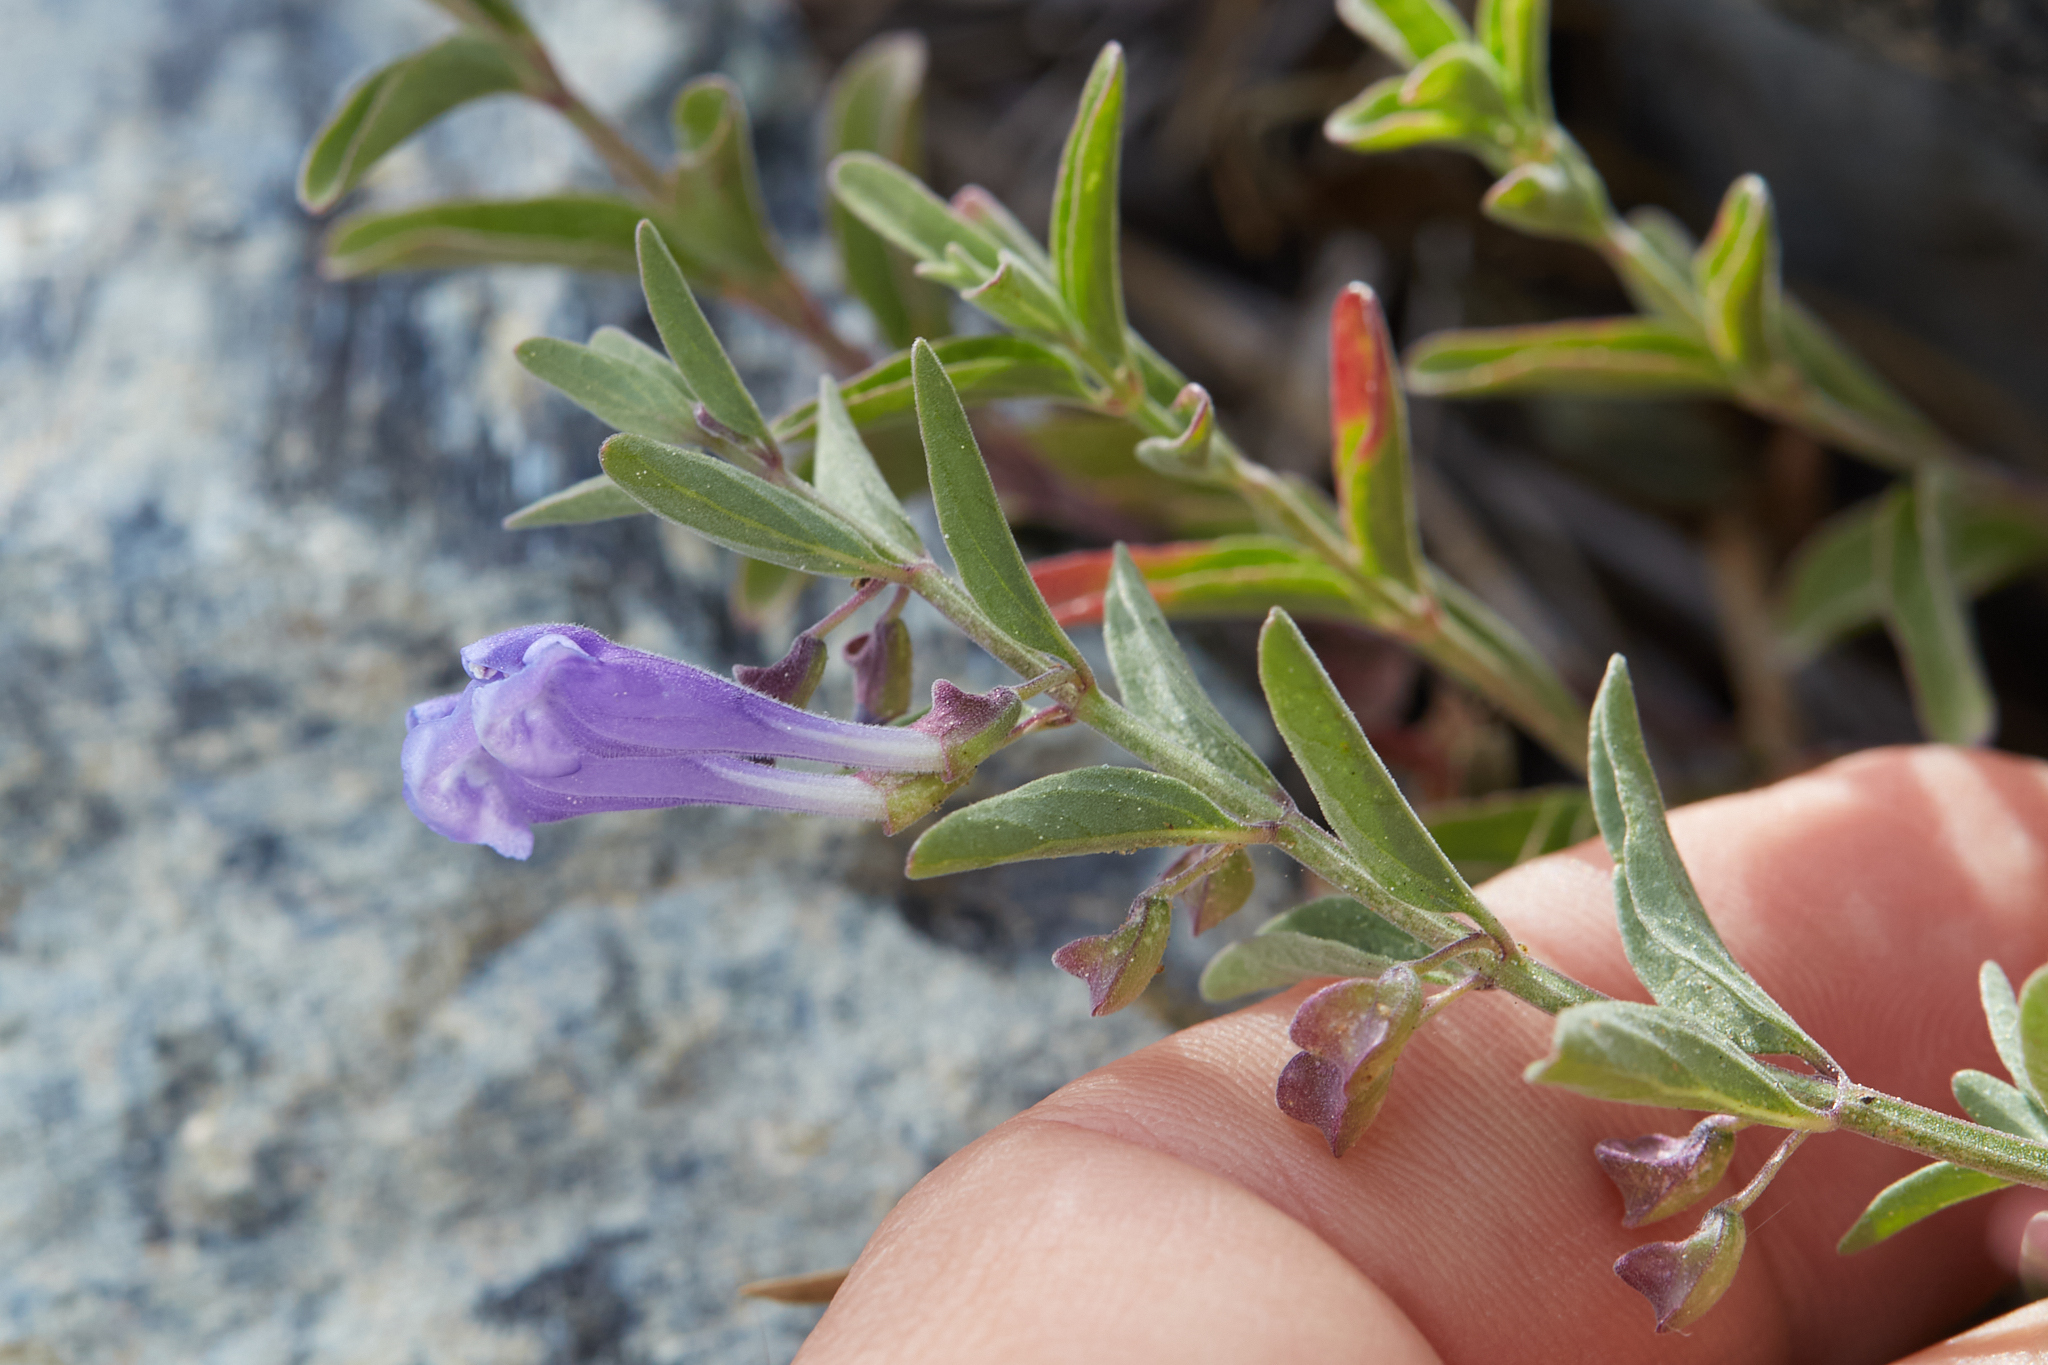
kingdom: Plantae
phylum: Tracheophyta
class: Magnoliopsida
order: Lamiales
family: Lamiaceae
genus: Scutellaria
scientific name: Scutellaria antirrhinoides
